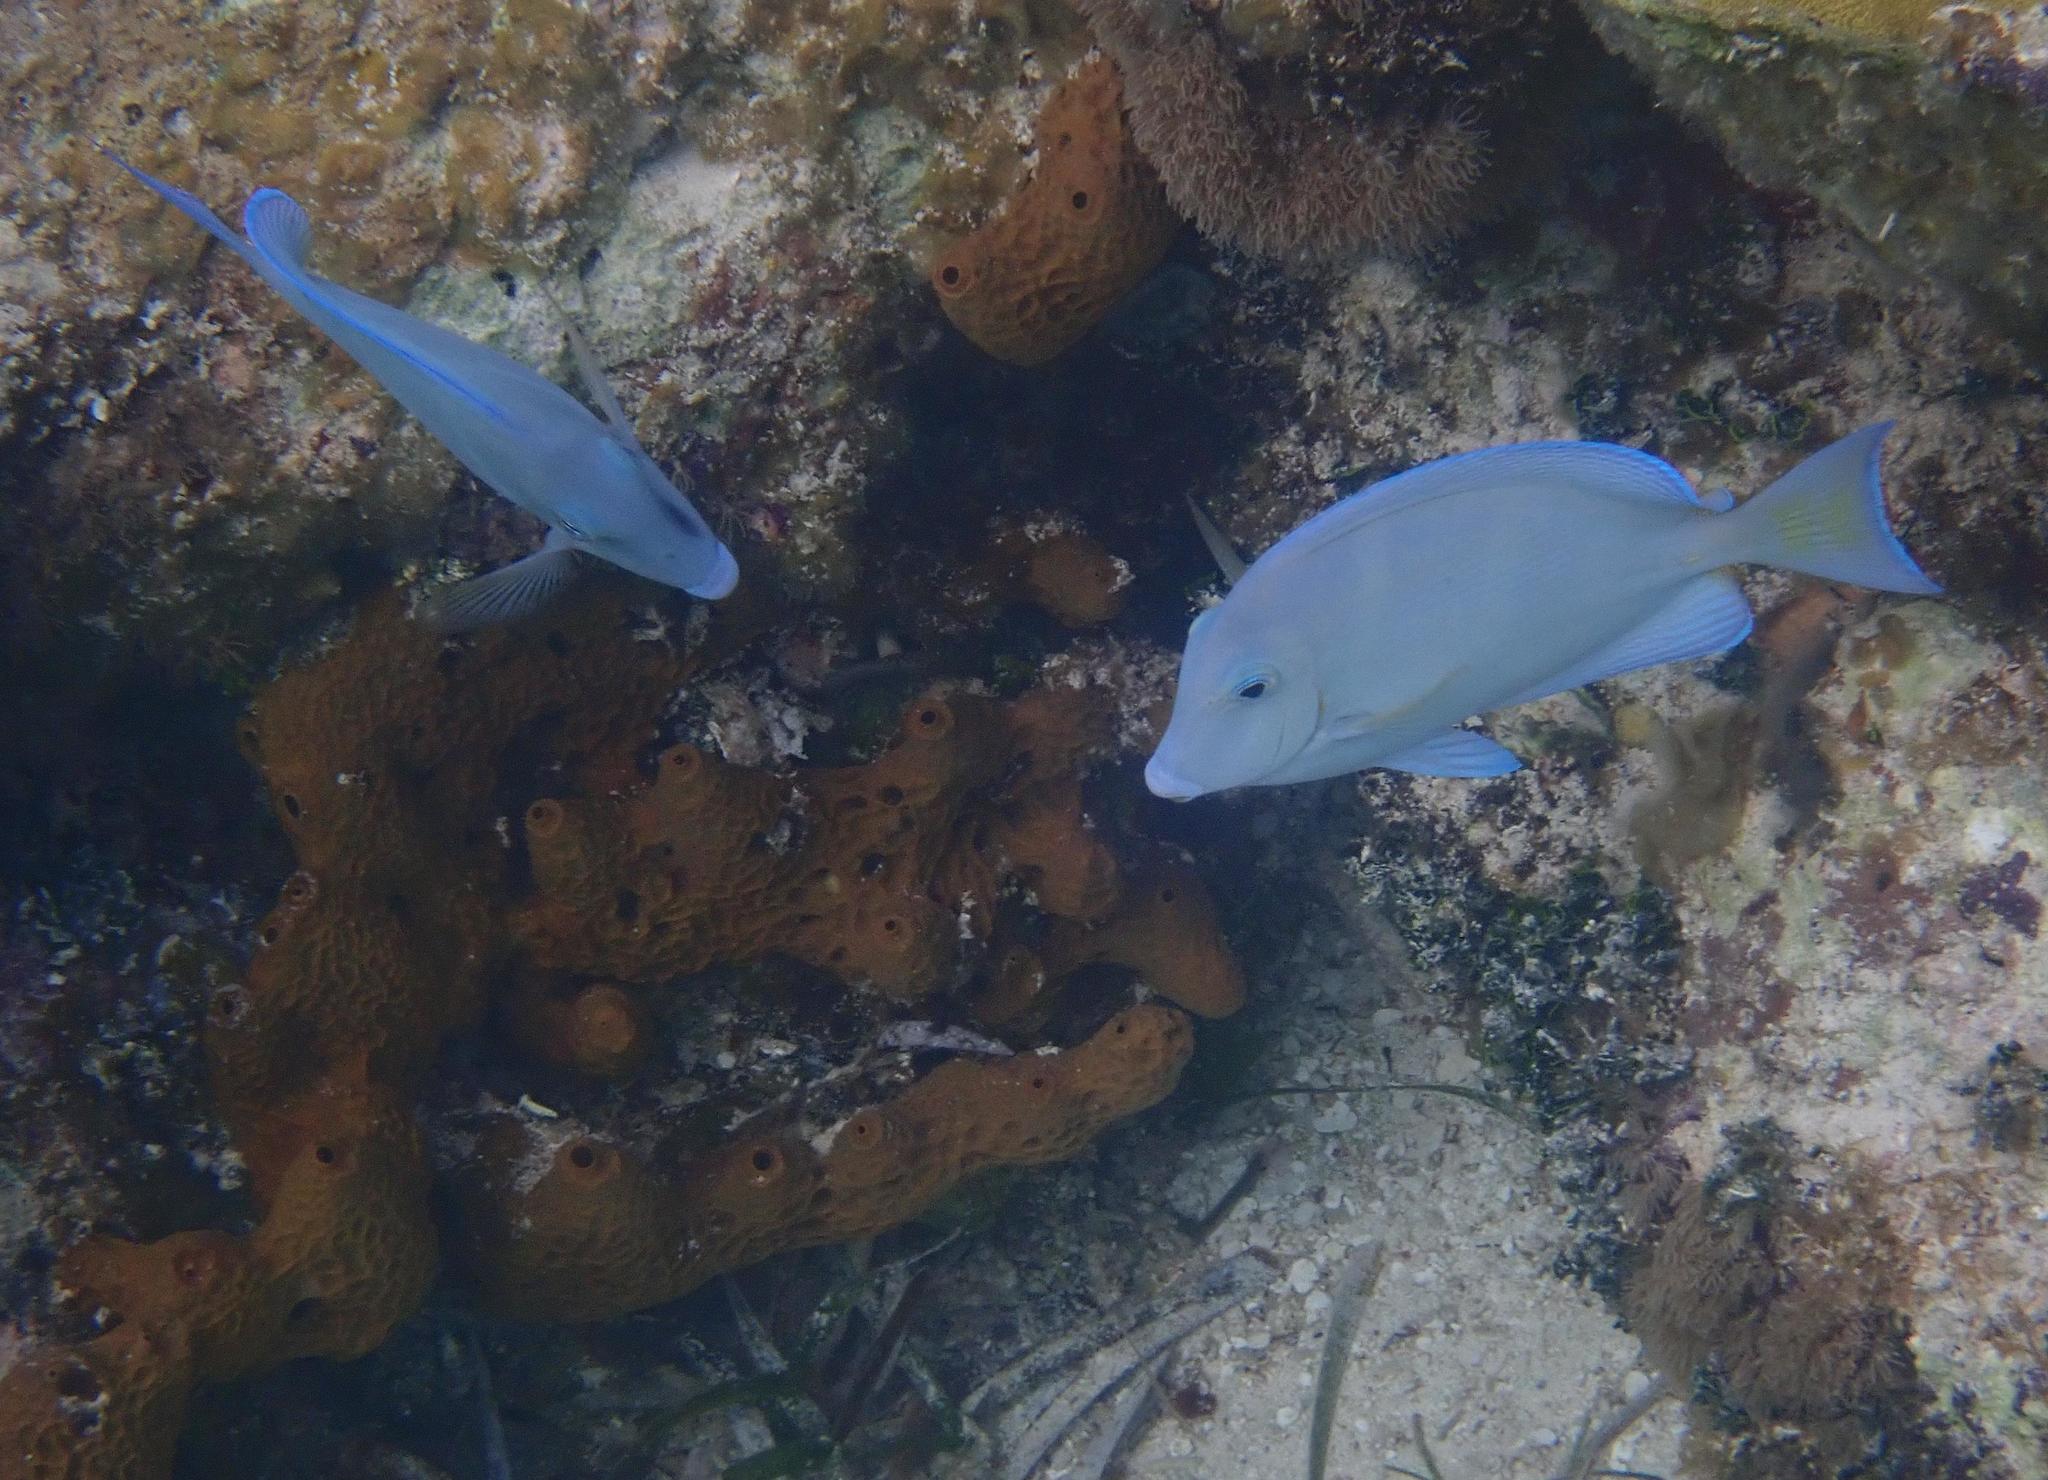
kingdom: Animalia
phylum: Chordata
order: Perciformes
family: Acanthuridae
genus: Acanthurus
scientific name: Acanthurus coeruleus
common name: Blue tang
